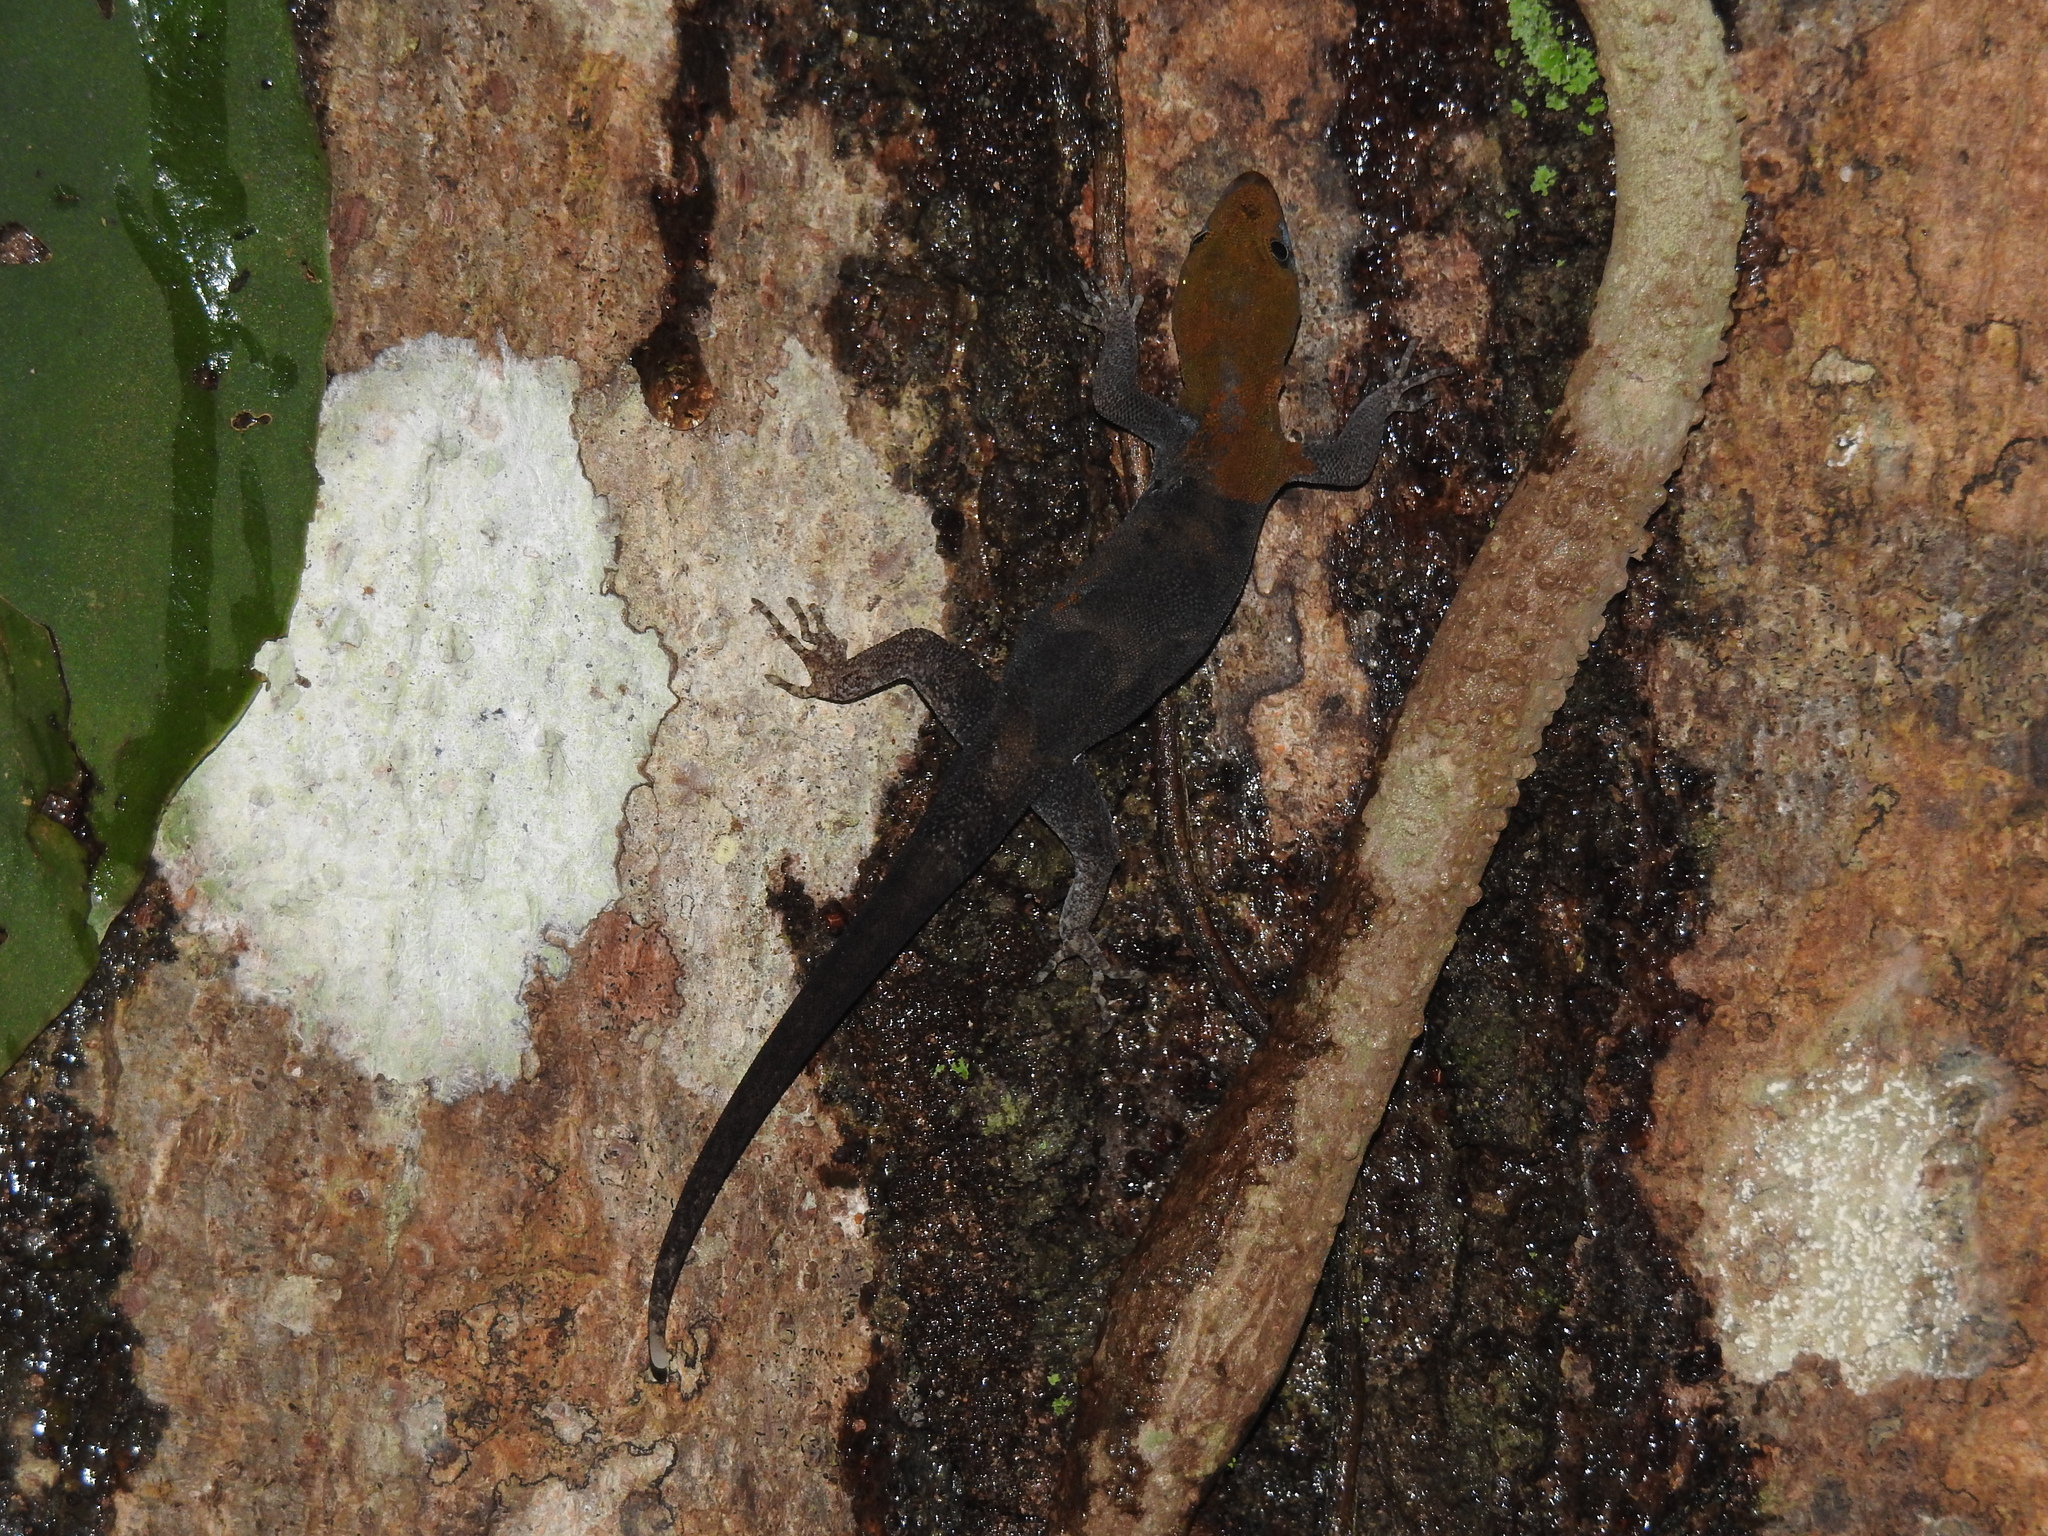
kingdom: Animalia
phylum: Chordata
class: Squamata
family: Sphaerodactylidae
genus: Gonatodes
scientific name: Gonatodes albogularis
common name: Yellow-headed gecko
